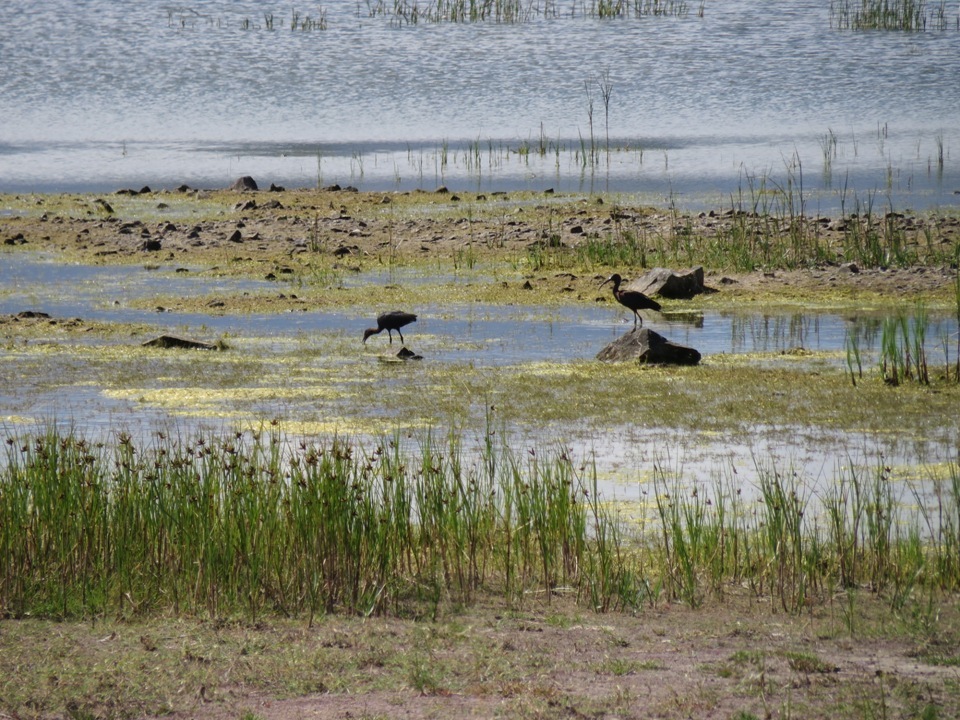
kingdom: Animalia
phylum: Chordata
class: Aves
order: Pelecaniformes
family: Threskiornithidae
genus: Plegadis
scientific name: Plegadis falcinellus
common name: Glossy ibis
